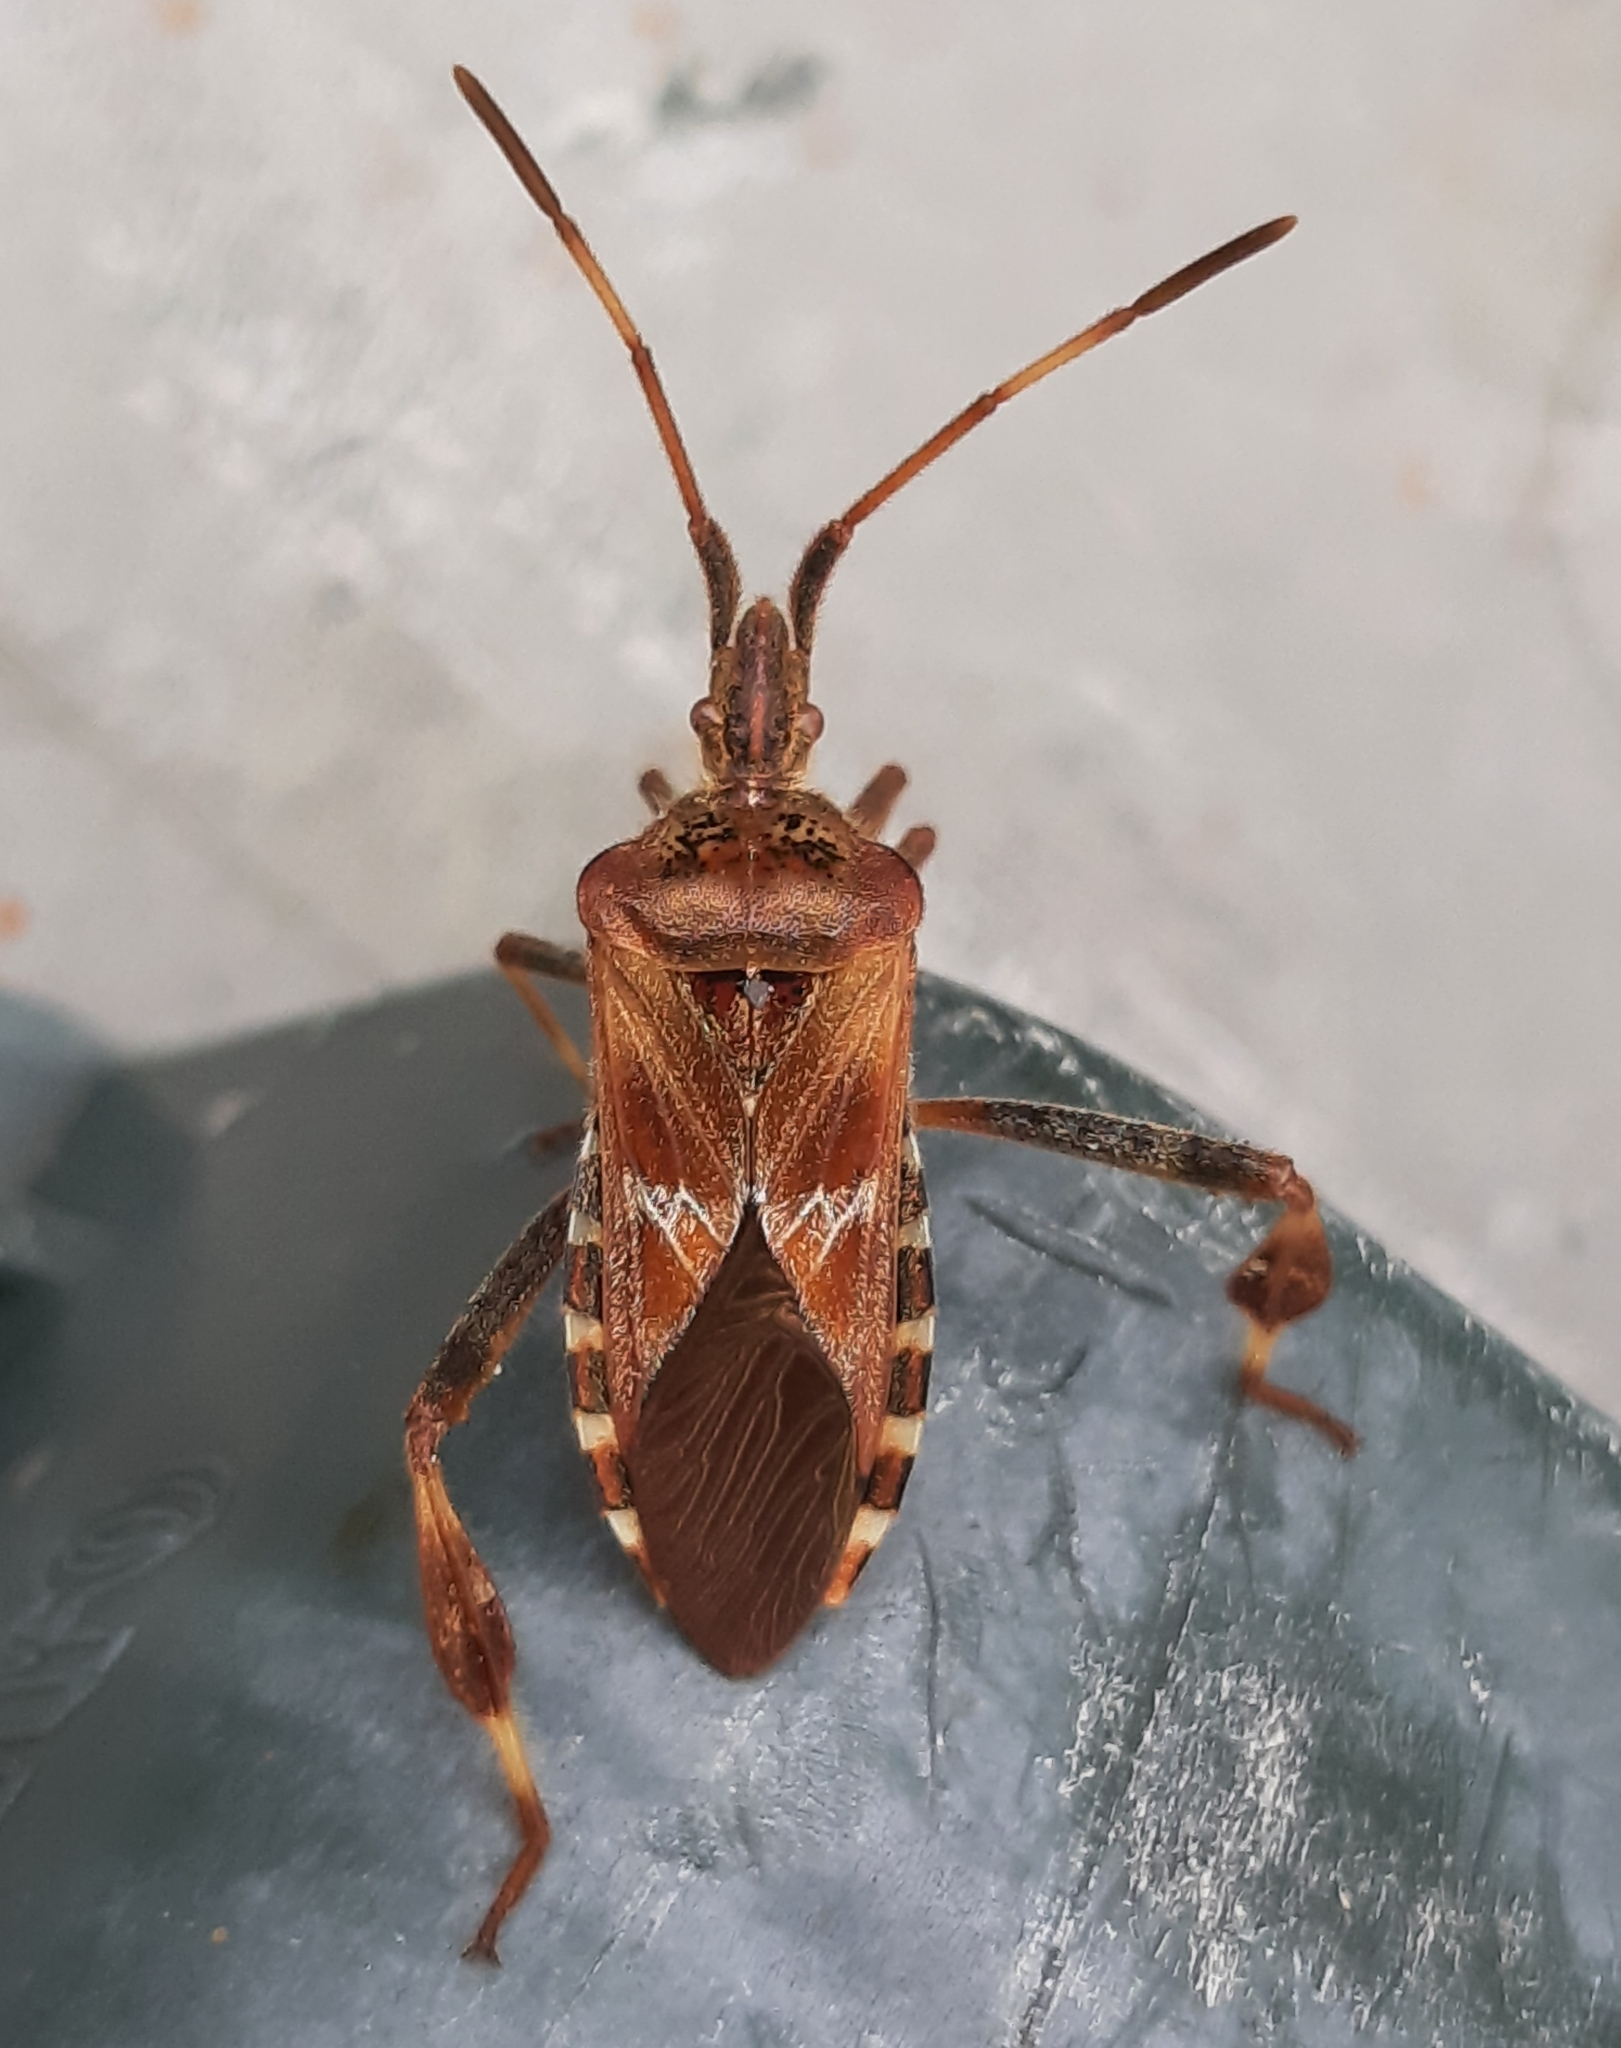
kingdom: Animalia
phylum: Arthropoda
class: Insecta
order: Hemiptera
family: Coreidae
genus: Leptoglossus
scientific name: Leptoglossus occidentalis
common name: Western conifer-seed bug
